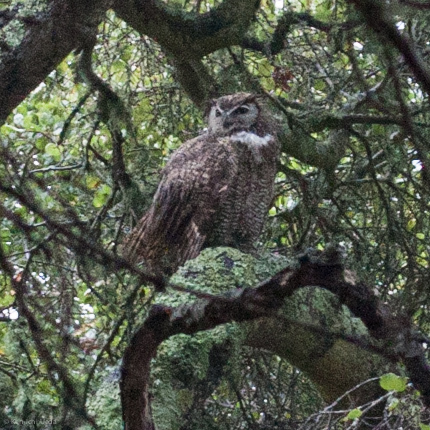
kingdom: Animalia
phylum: Chordata
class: Aves
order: Strigiformes
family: Strigidae
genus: Bubo
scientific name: Bubo virginianus
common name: Great horned owl
